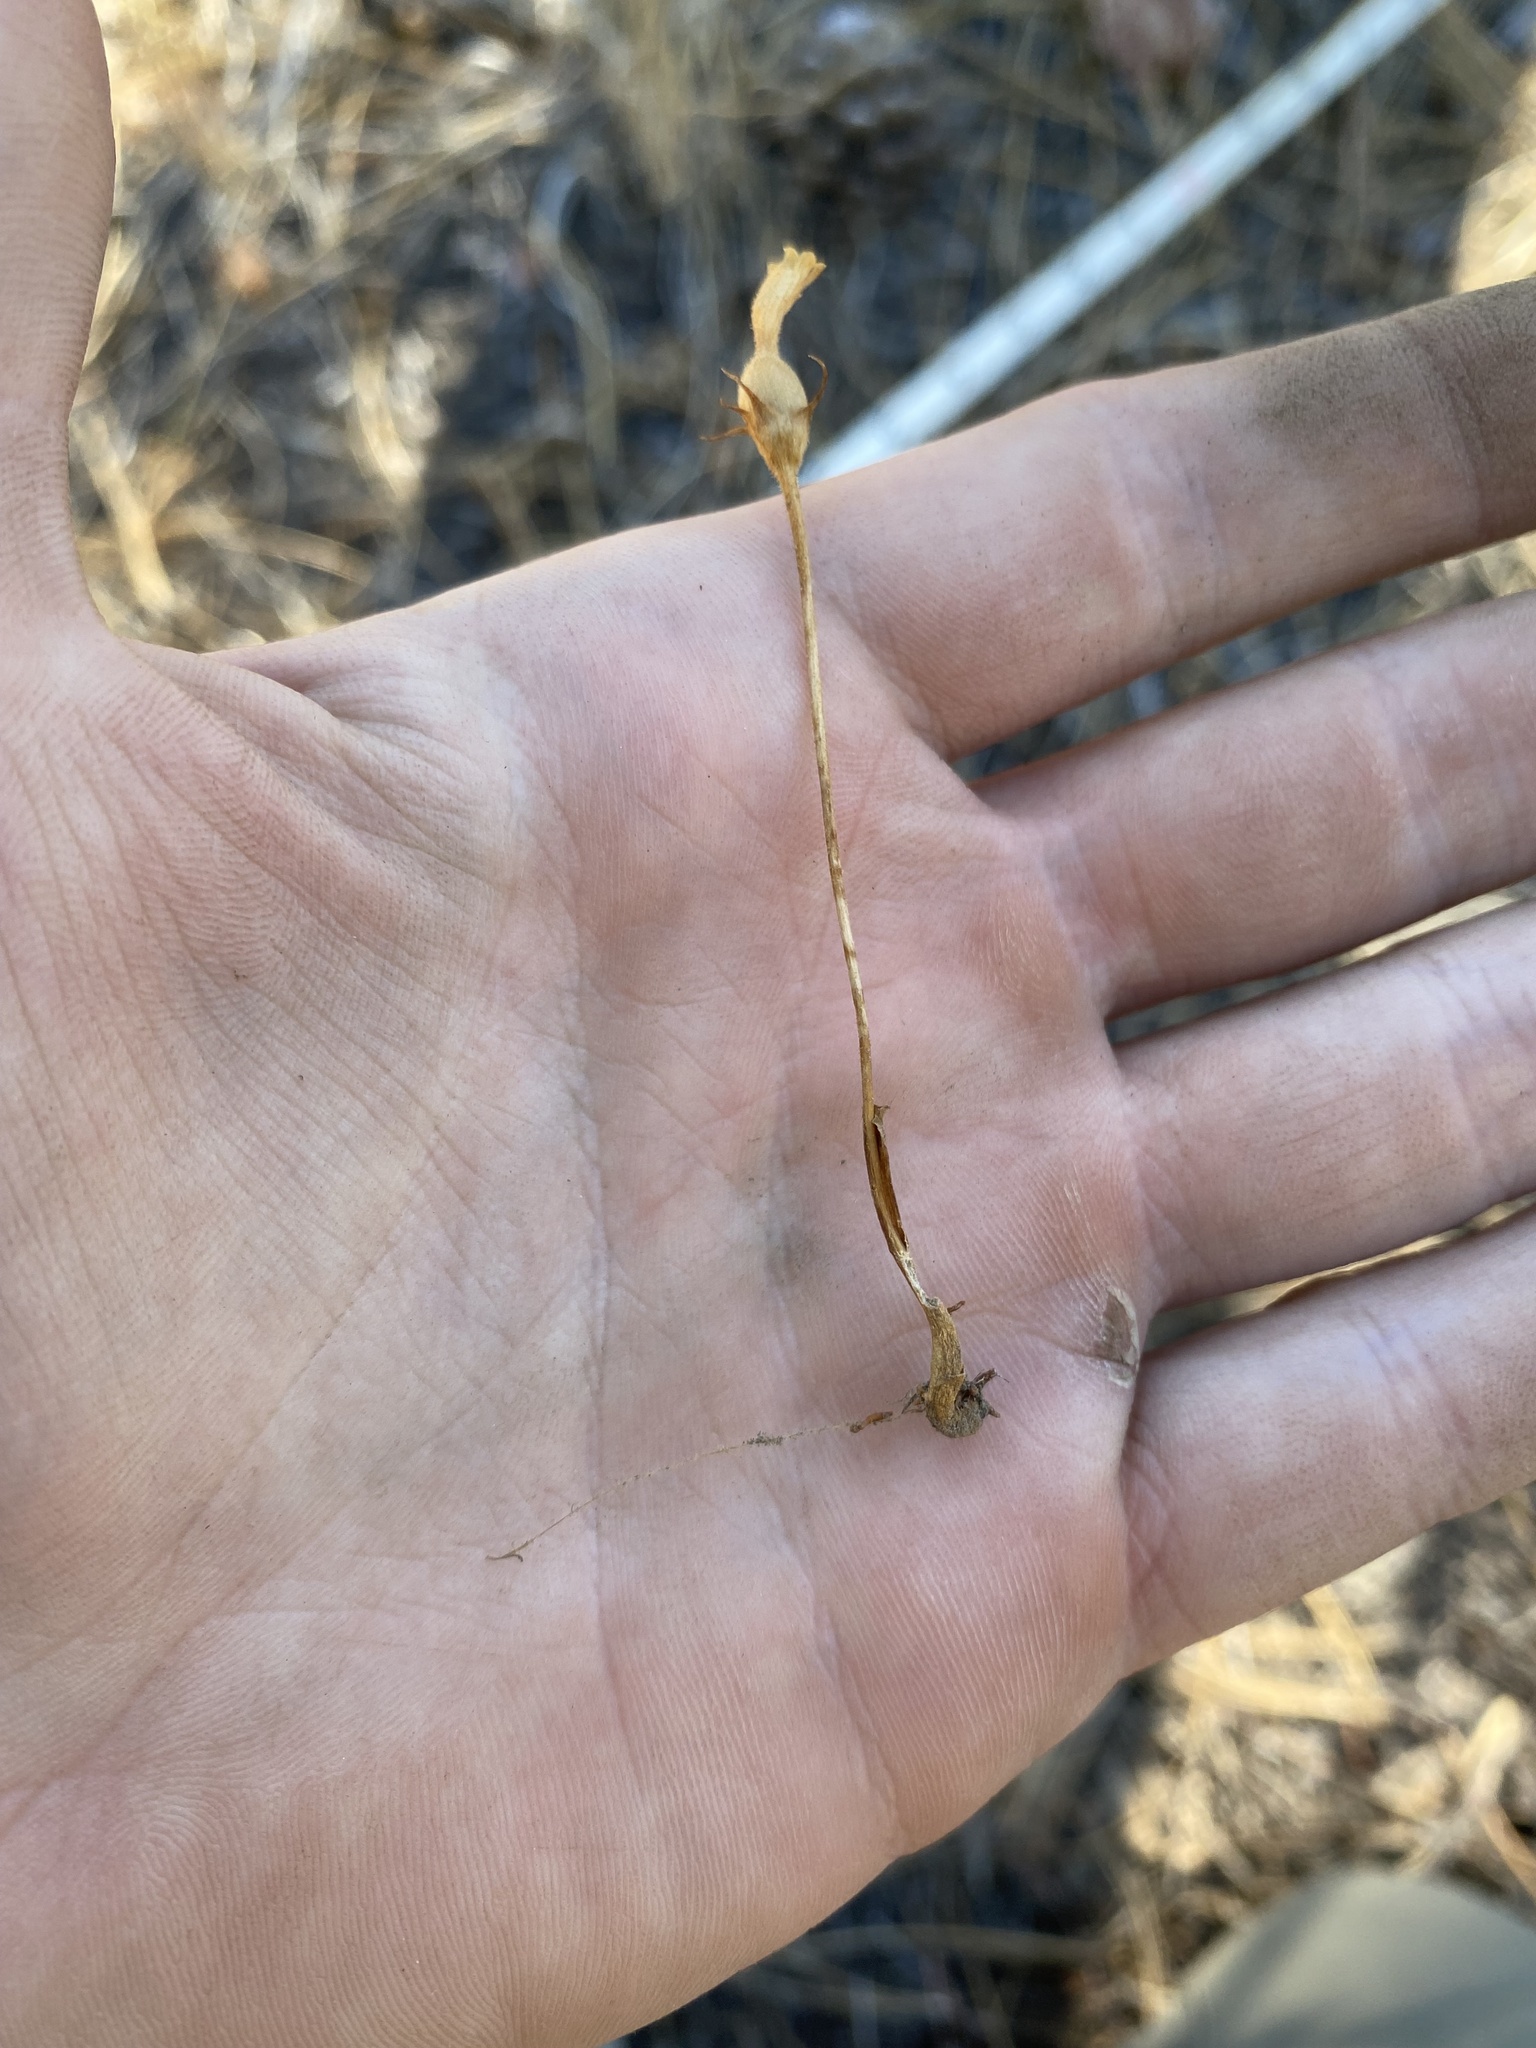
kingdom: Plantae
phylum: Tracheophyta
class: Magnoliopsida
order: Lamiales
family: Orobanchaceae
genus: Aphyllon
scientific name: Aphyllon uniflorum
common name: One-flowered broomrape
